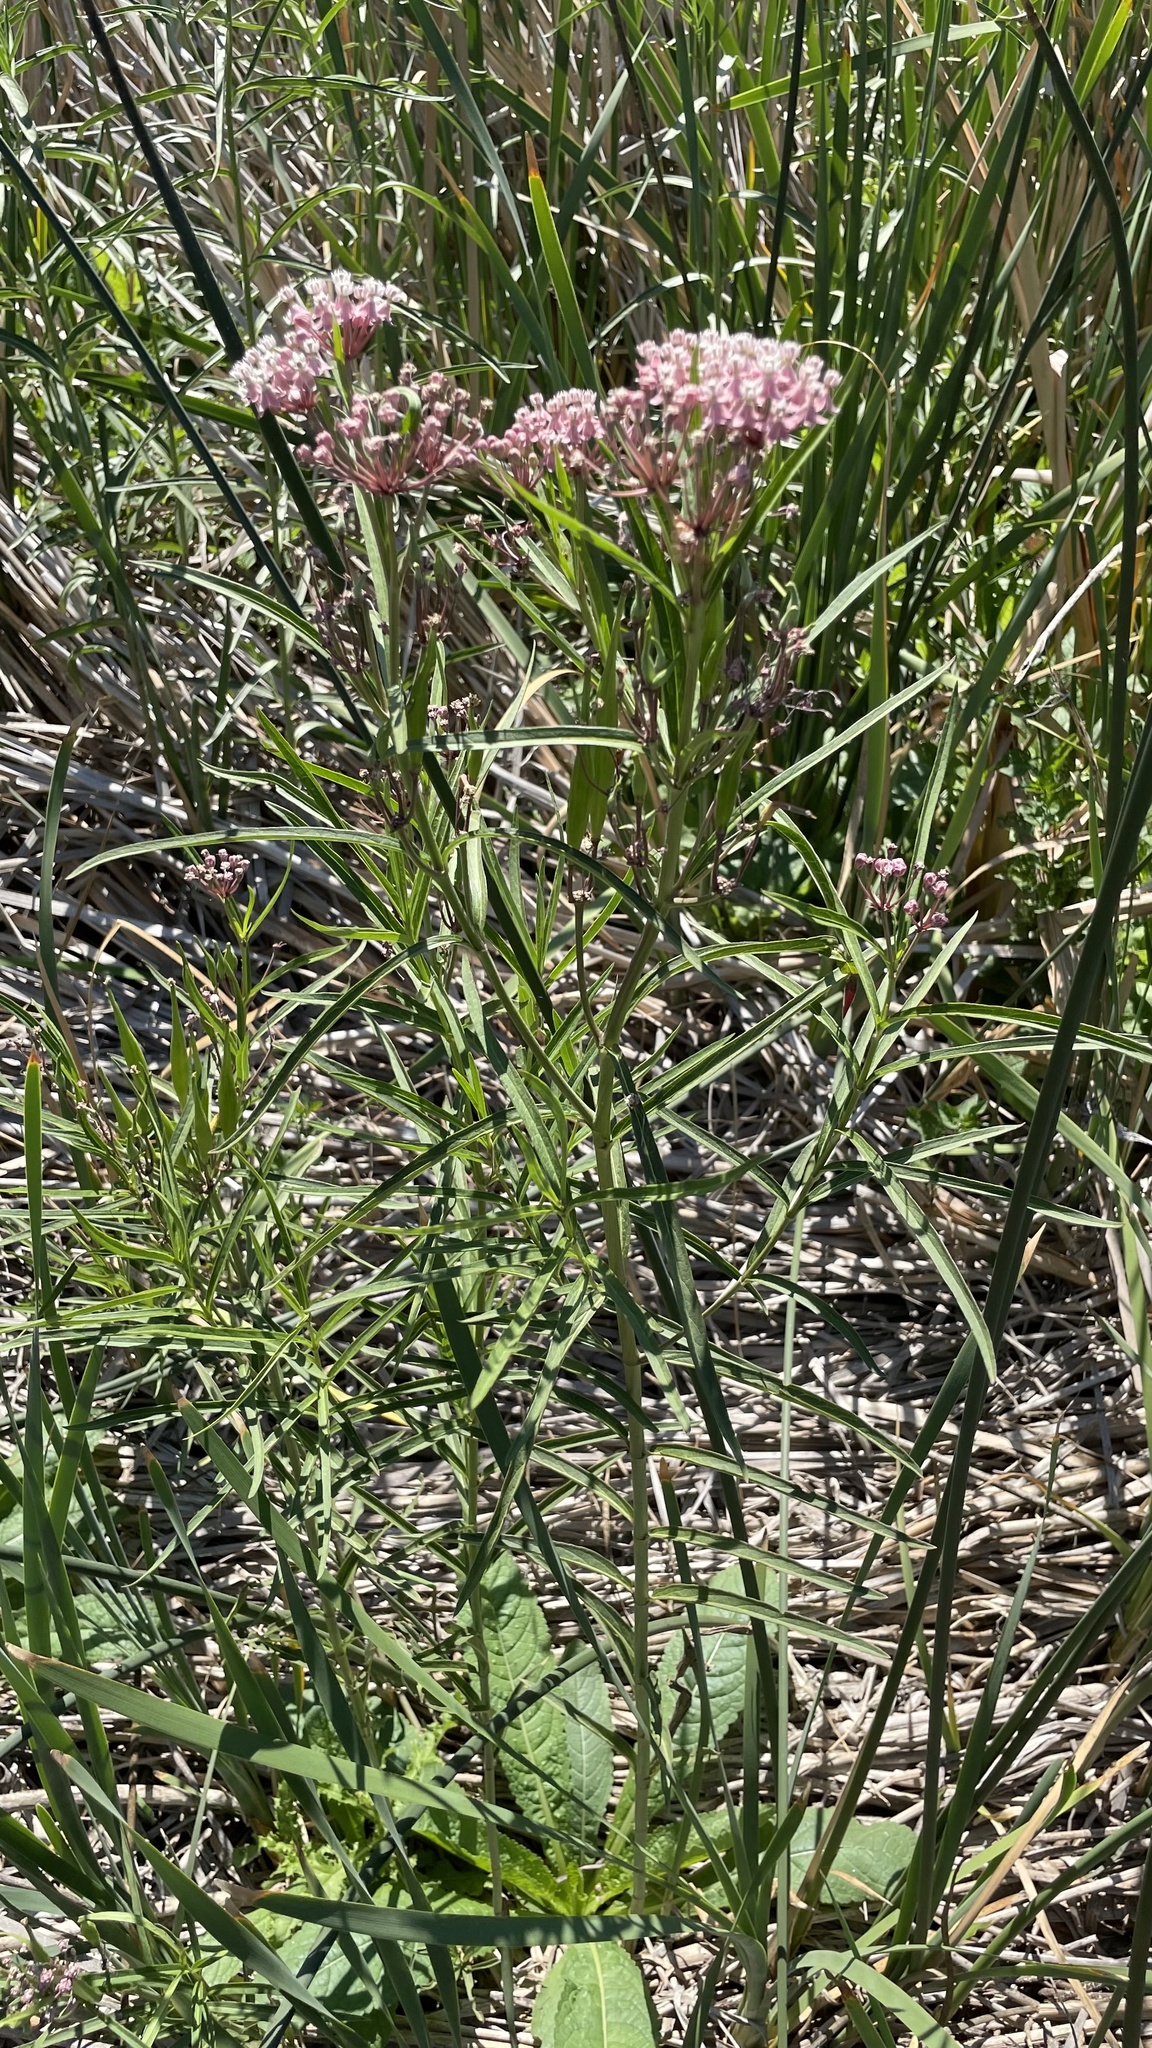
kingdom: Plantae
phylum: Tracheophyta
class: Magnoliopsida
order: Gentianales
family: Apocynaceae
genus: Asclepias
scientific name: Asclepias incarnata
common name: Swamp milkweed
